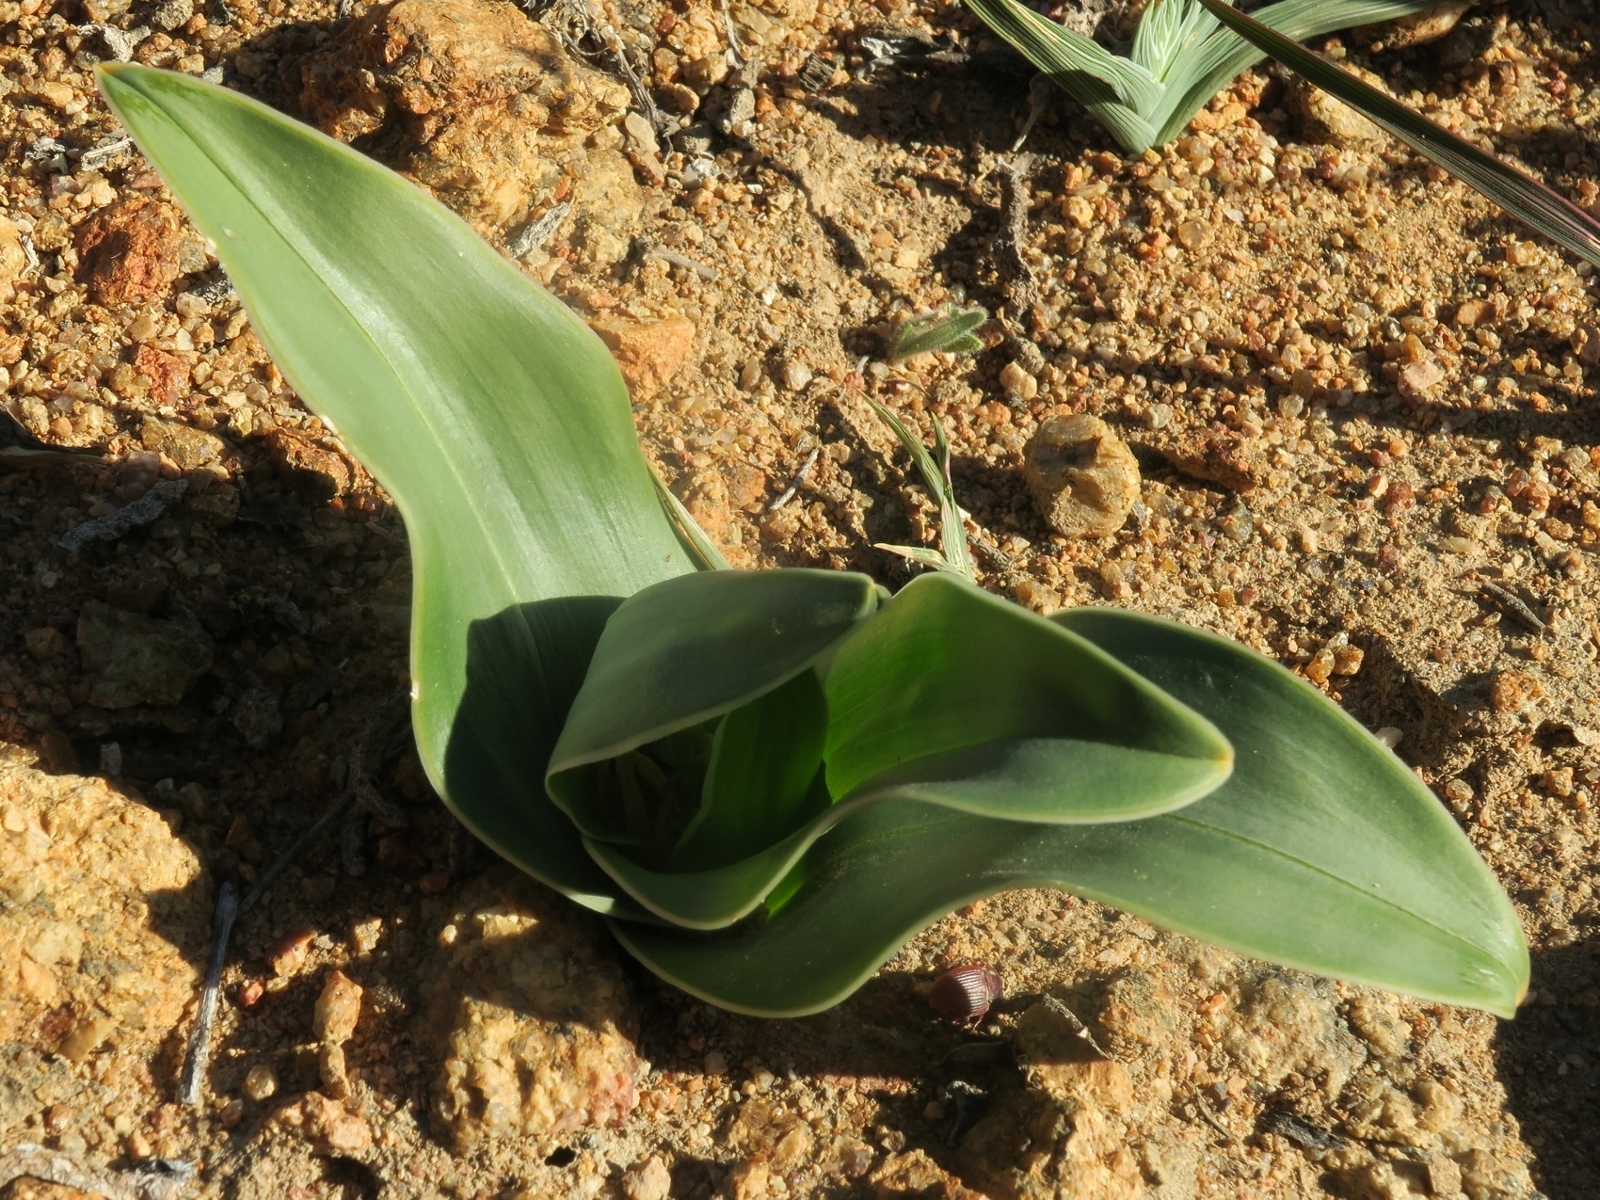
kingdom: Plantae
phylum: Tracheophyta
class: Liliopsida
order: Liliales
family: Colchicaceae
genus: Colchicum
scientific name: Colchicum albomarginatum
